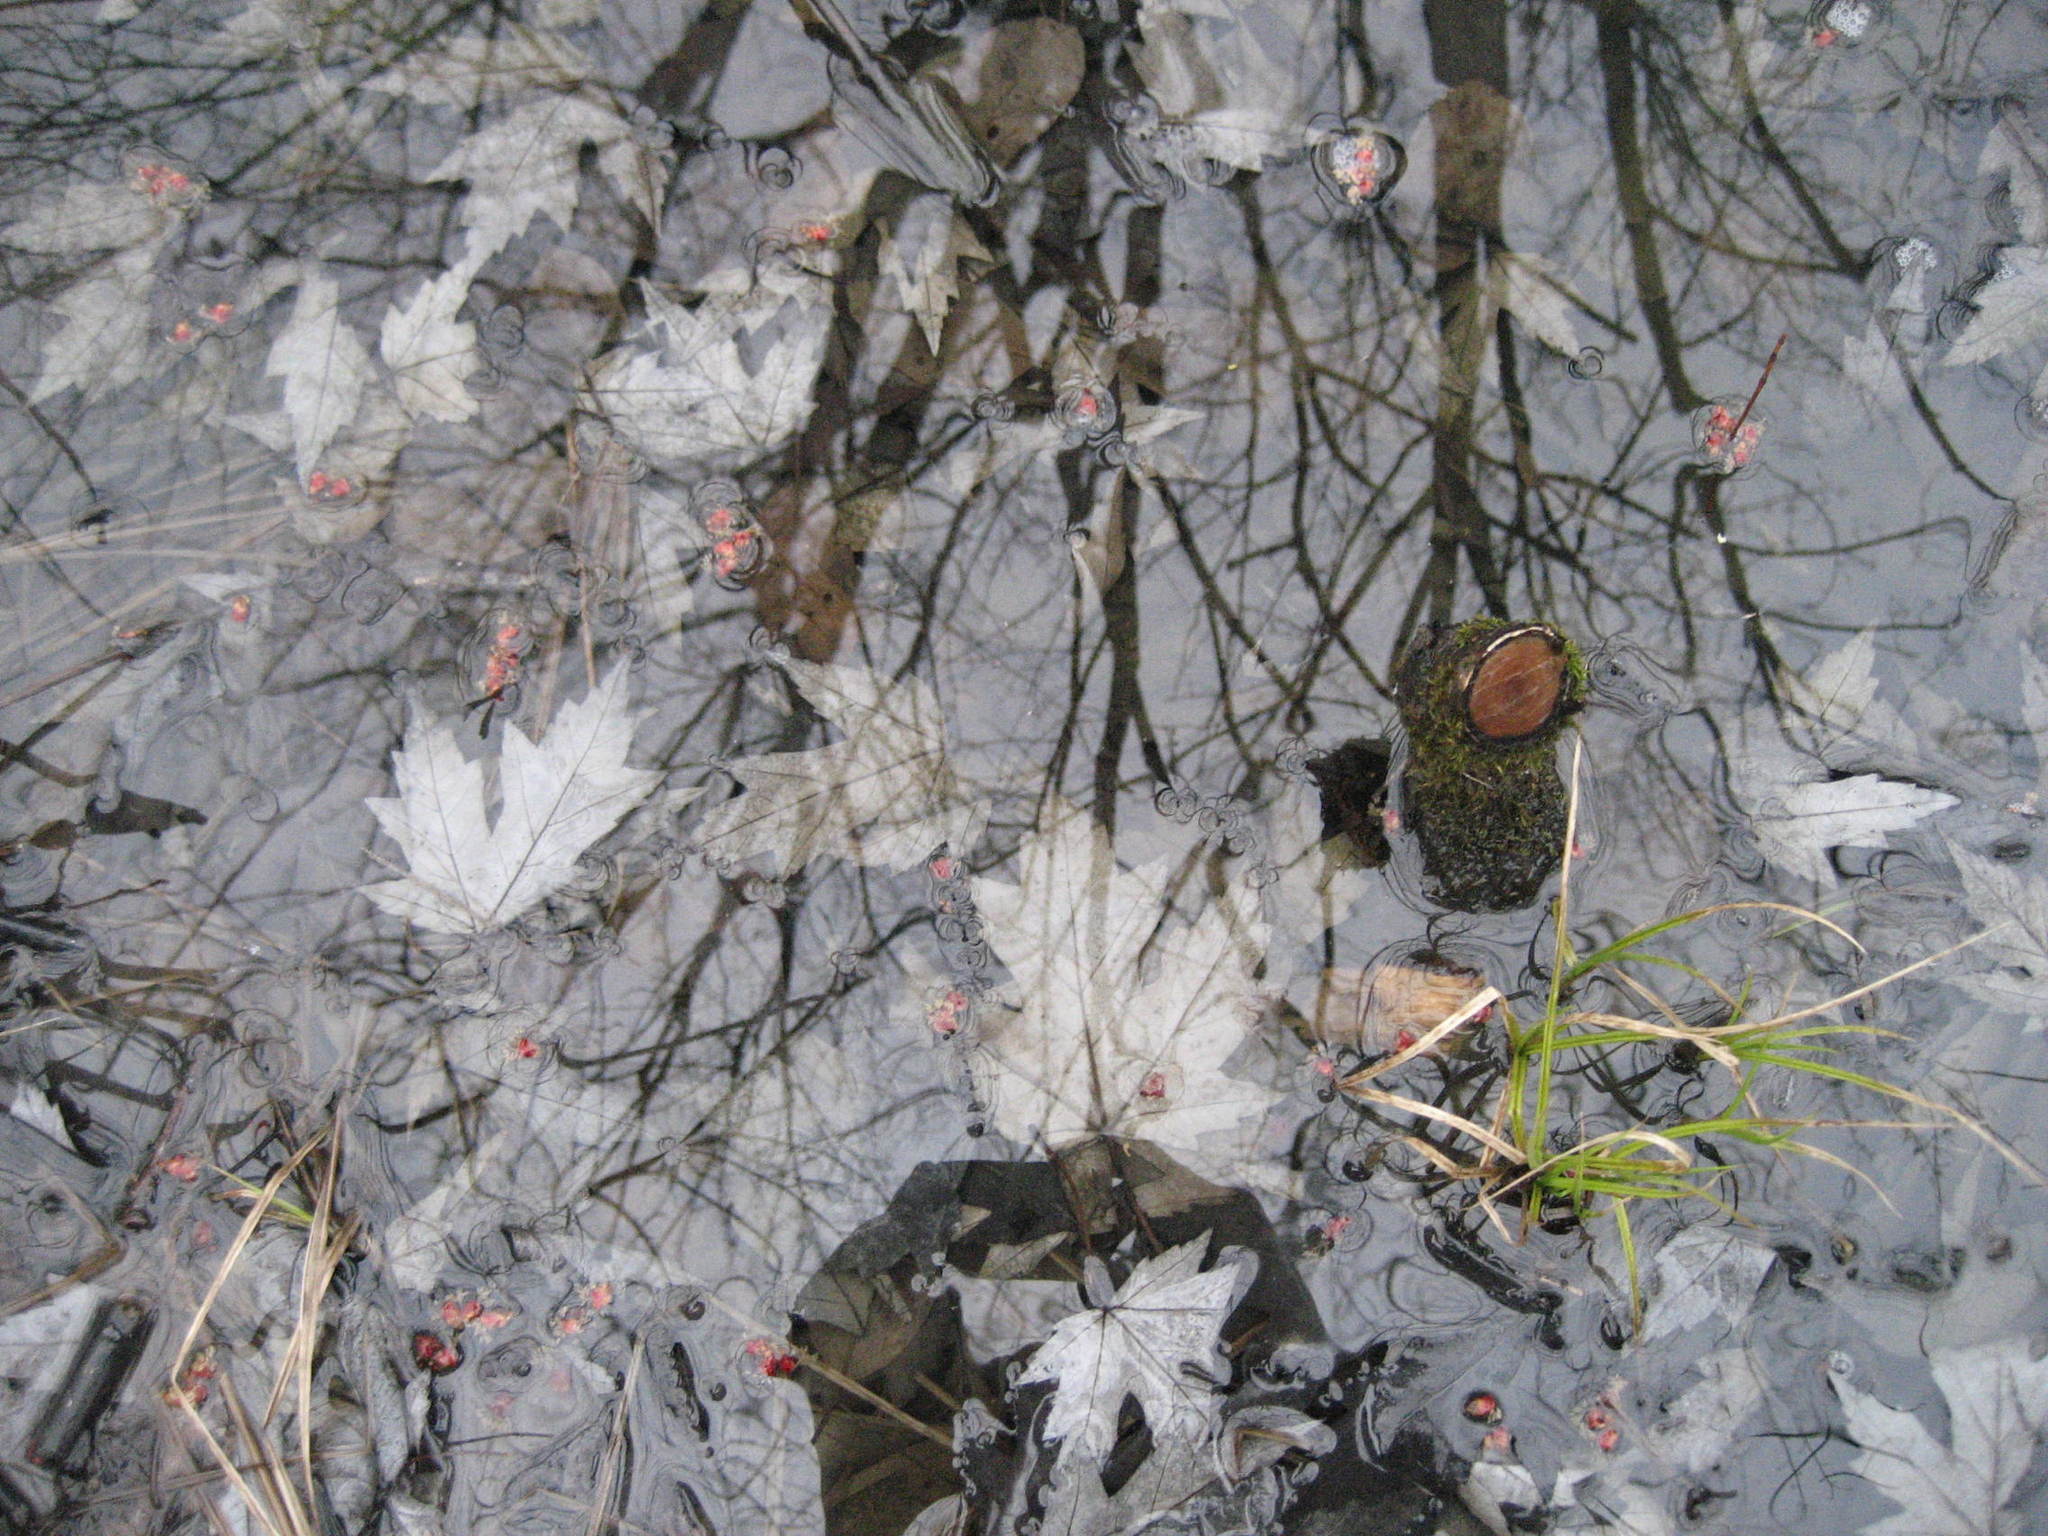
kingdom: Plantae
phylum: Tracheophyta
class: Magnoliopsida
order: Sapindales
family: Sapindaceae
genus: Acer
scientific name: Acer saccharinum
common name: Silver maple
